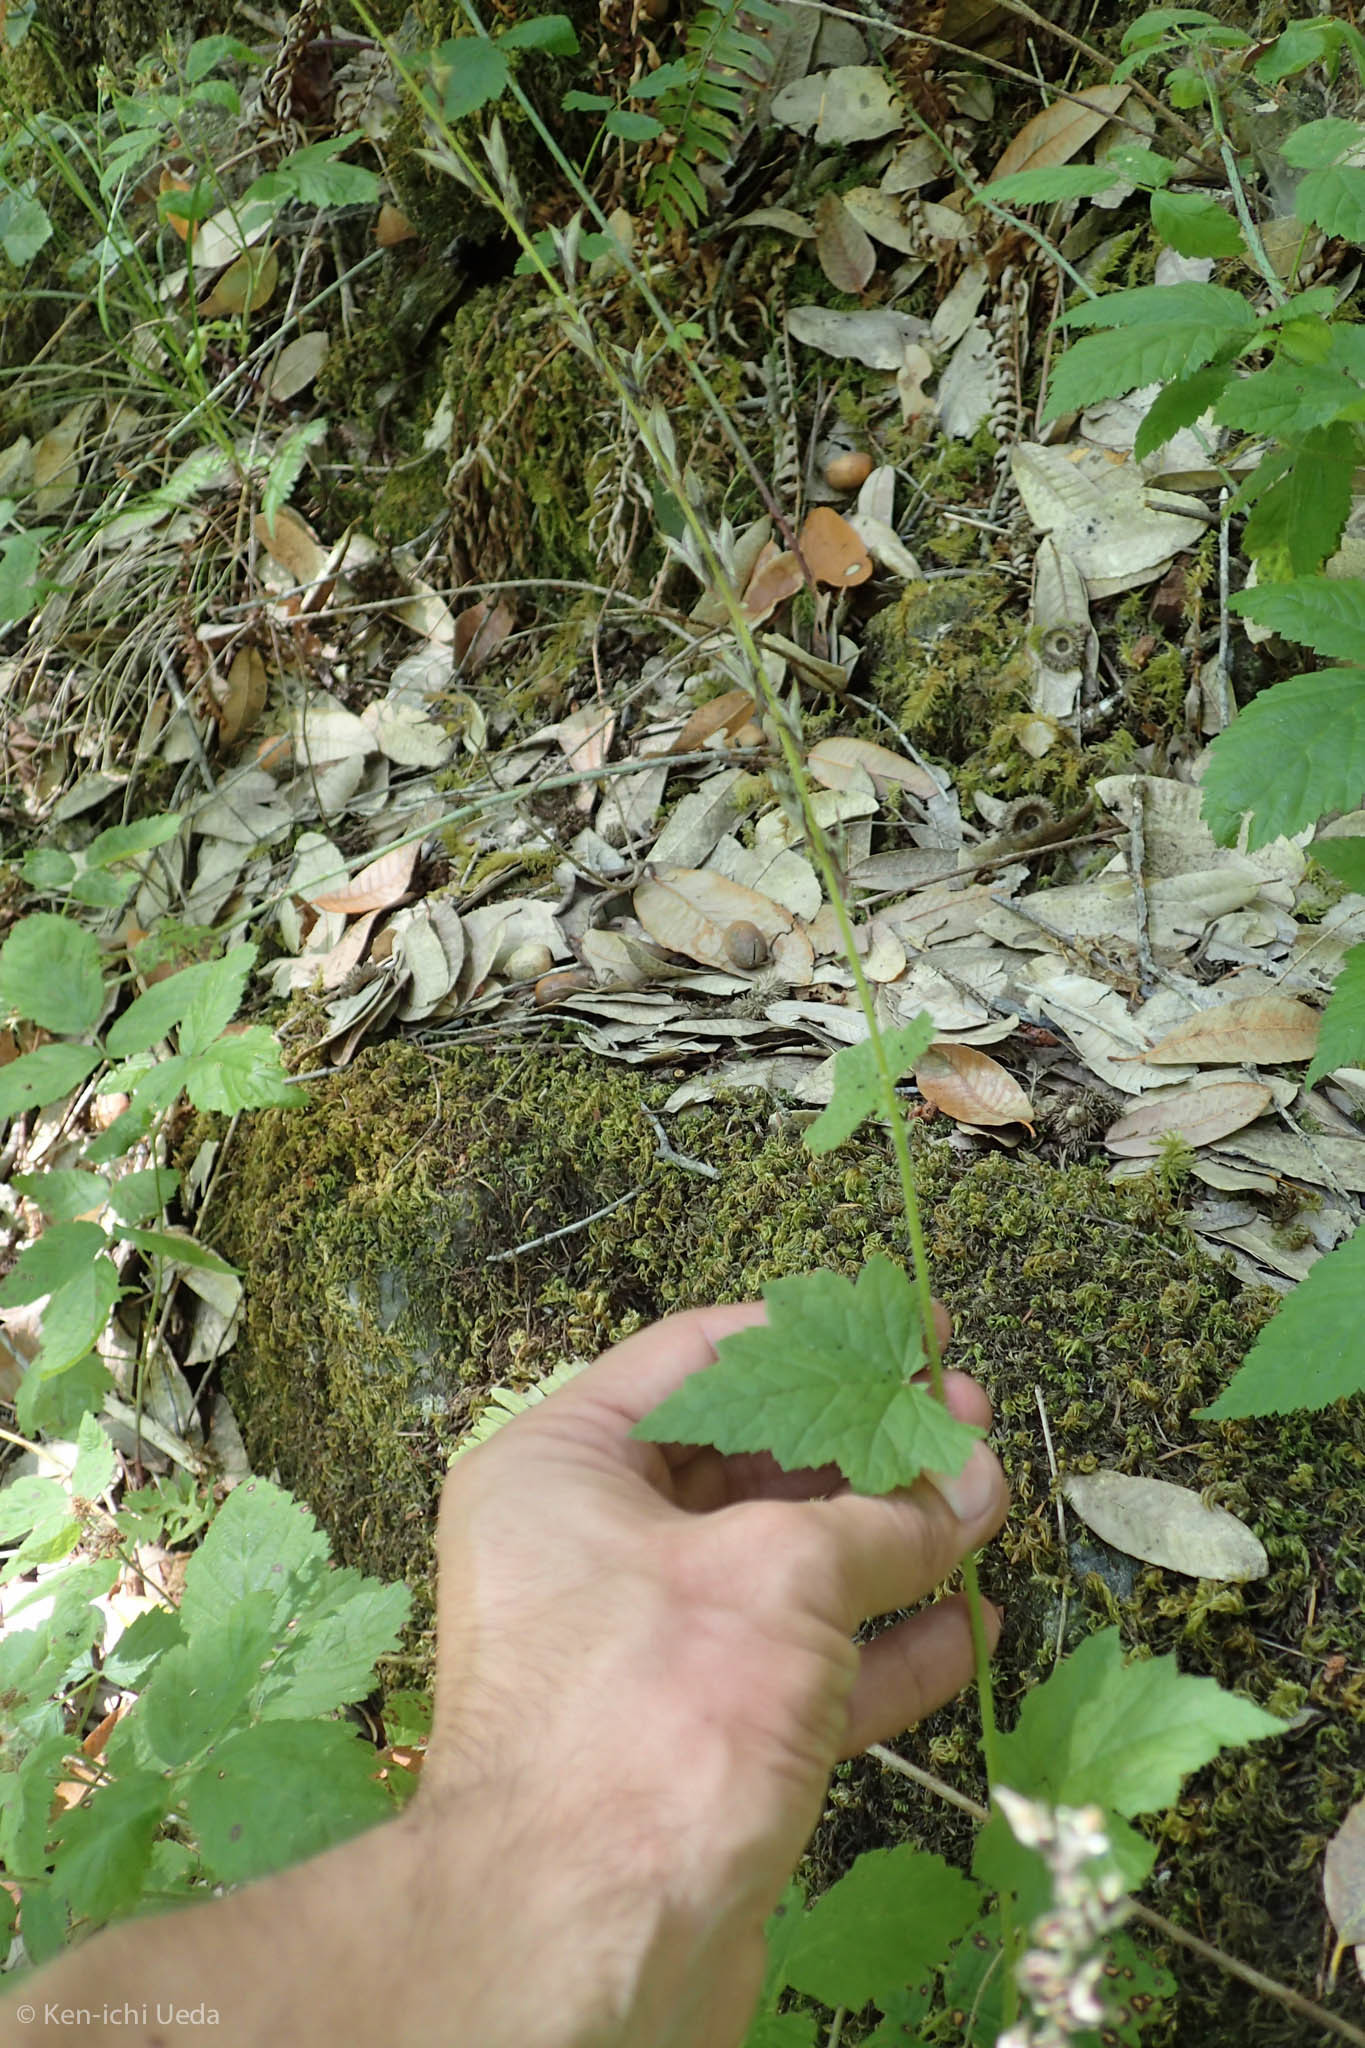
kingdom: Plantae
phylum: Tracheophyta
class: Magnoliopsida
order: Saxifragales
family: Saxifragaceae
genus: Tolmiea
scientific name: Tolmiea diplomenziesii
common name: Youth on age
